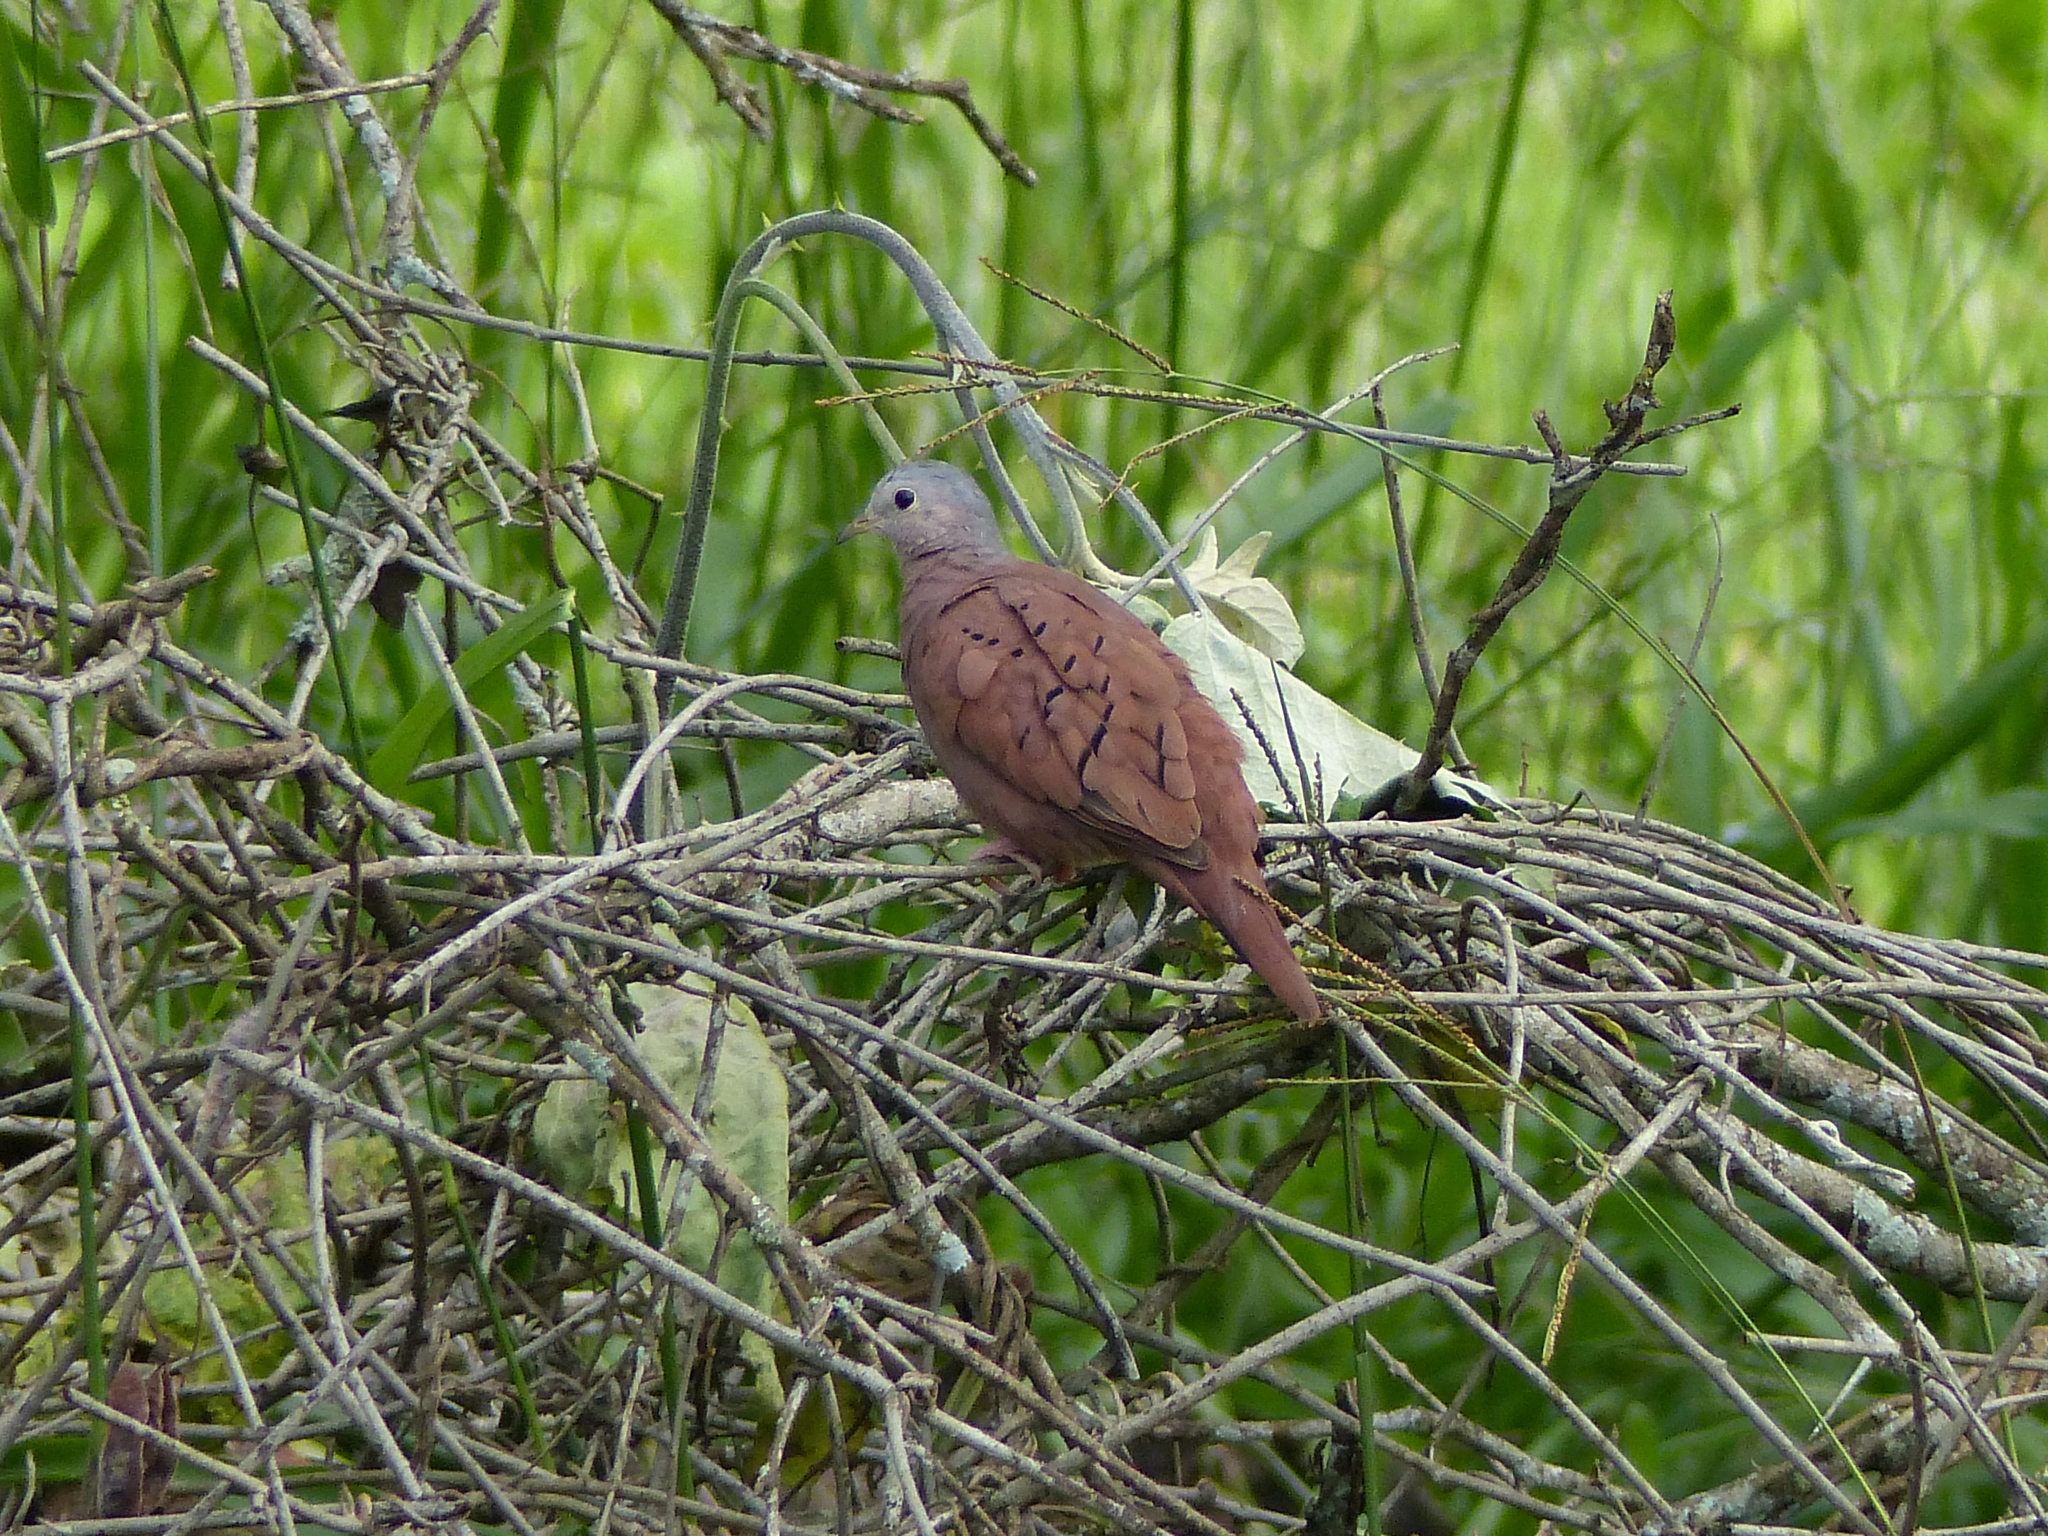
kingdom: Animalia
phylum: Chordata
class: Aves
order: Columbiformes
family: Columbidae
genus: Columbina
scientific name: Columbina talpacoti
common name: Ruddy ground dove
